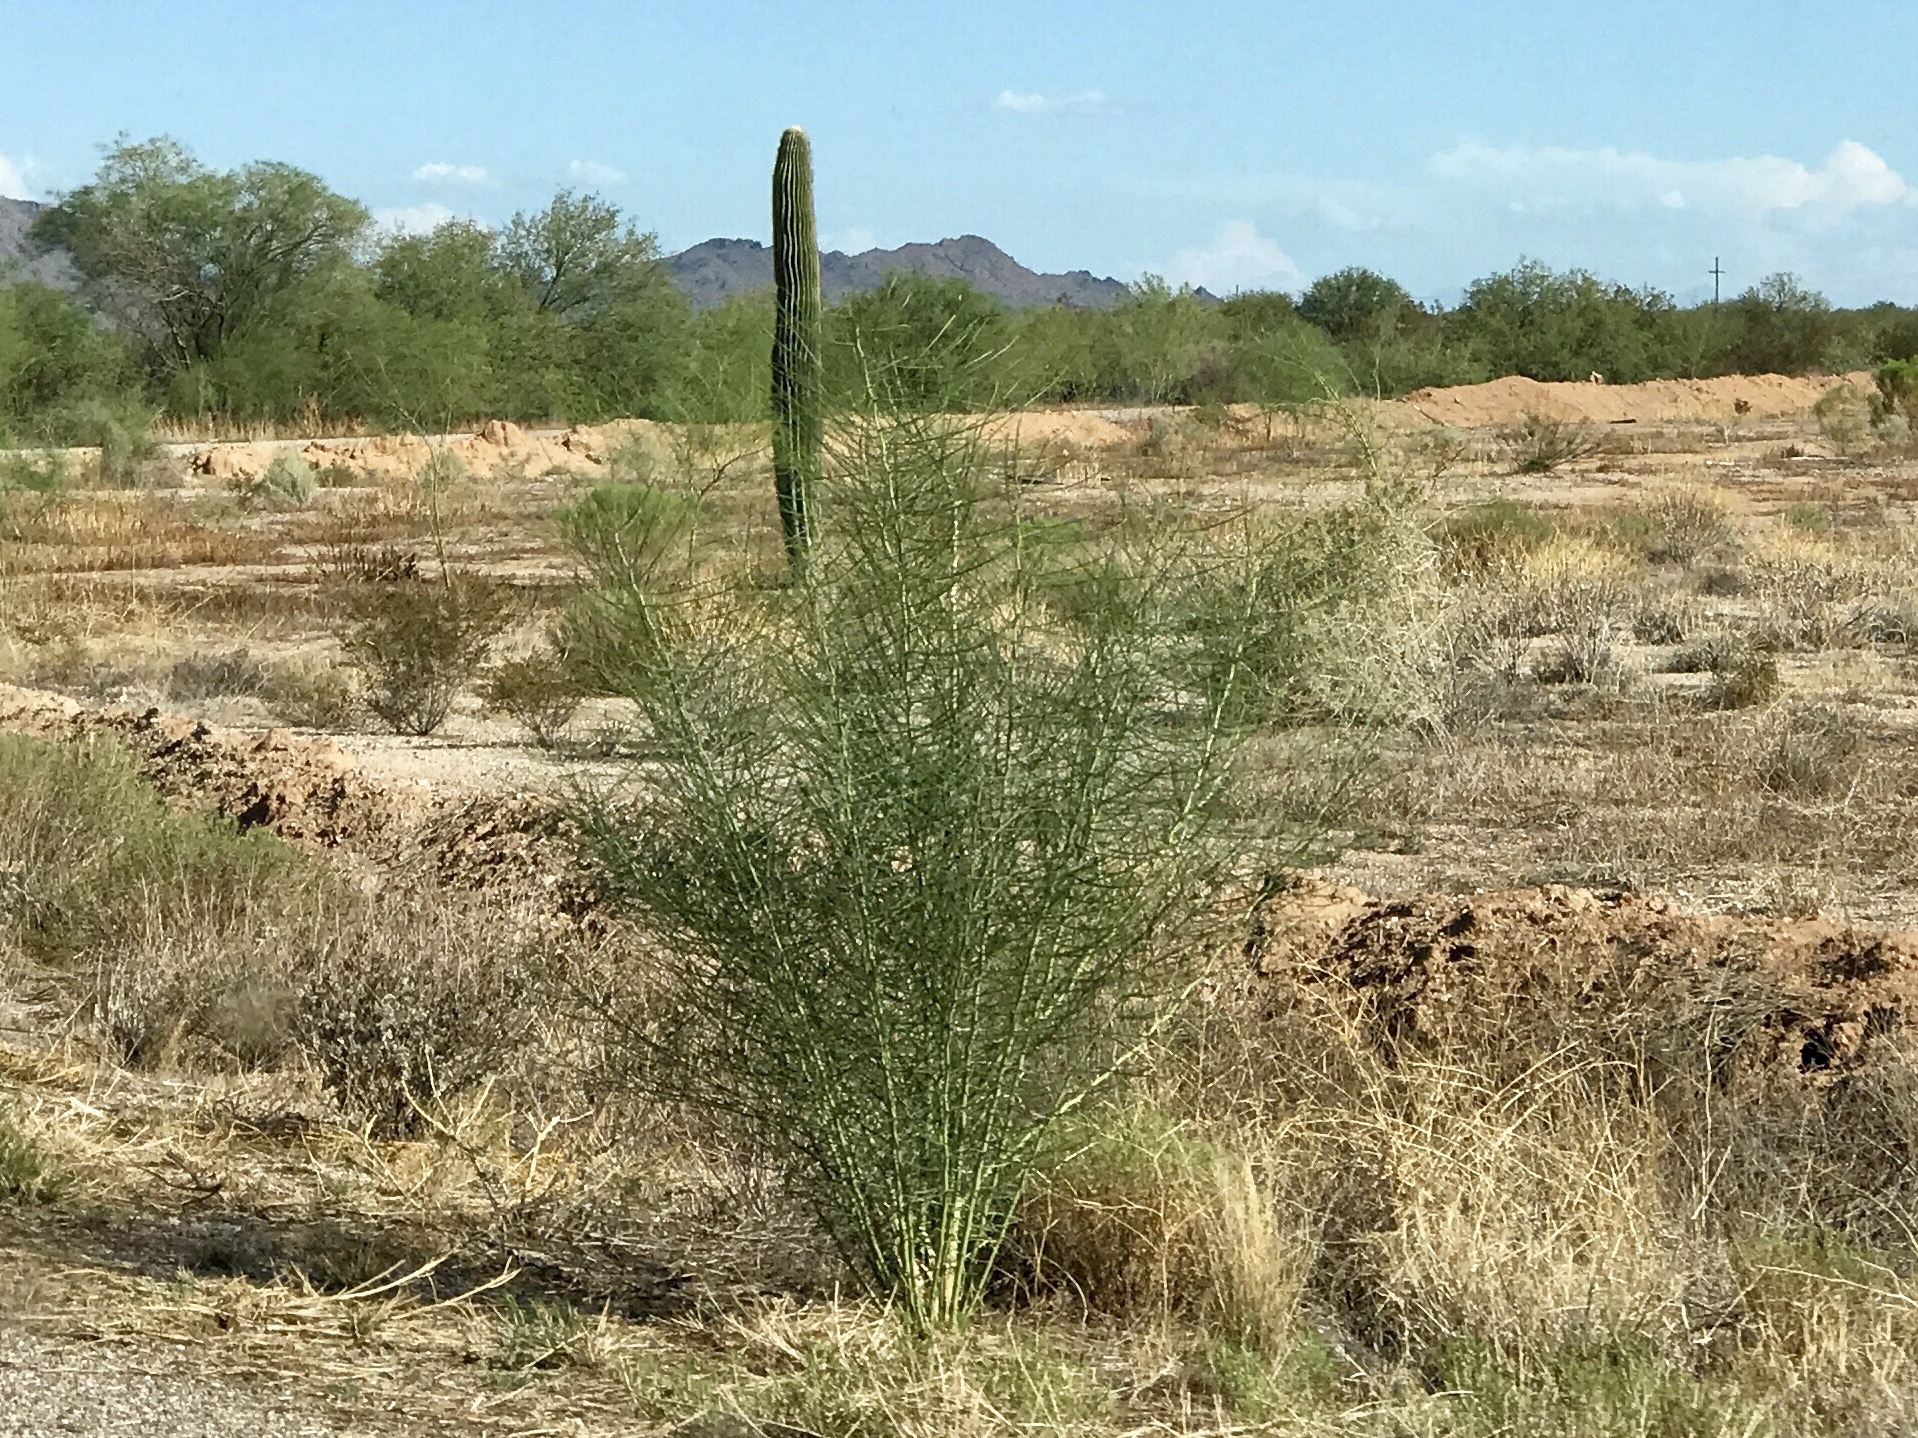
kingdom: Plantae
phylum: Tracheophyta
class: Magnoliopsida
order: Fabales
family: Fabaceae
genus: Parkinsonia
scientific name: Parkinsonia aculeata
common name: Jerusalem thorn
